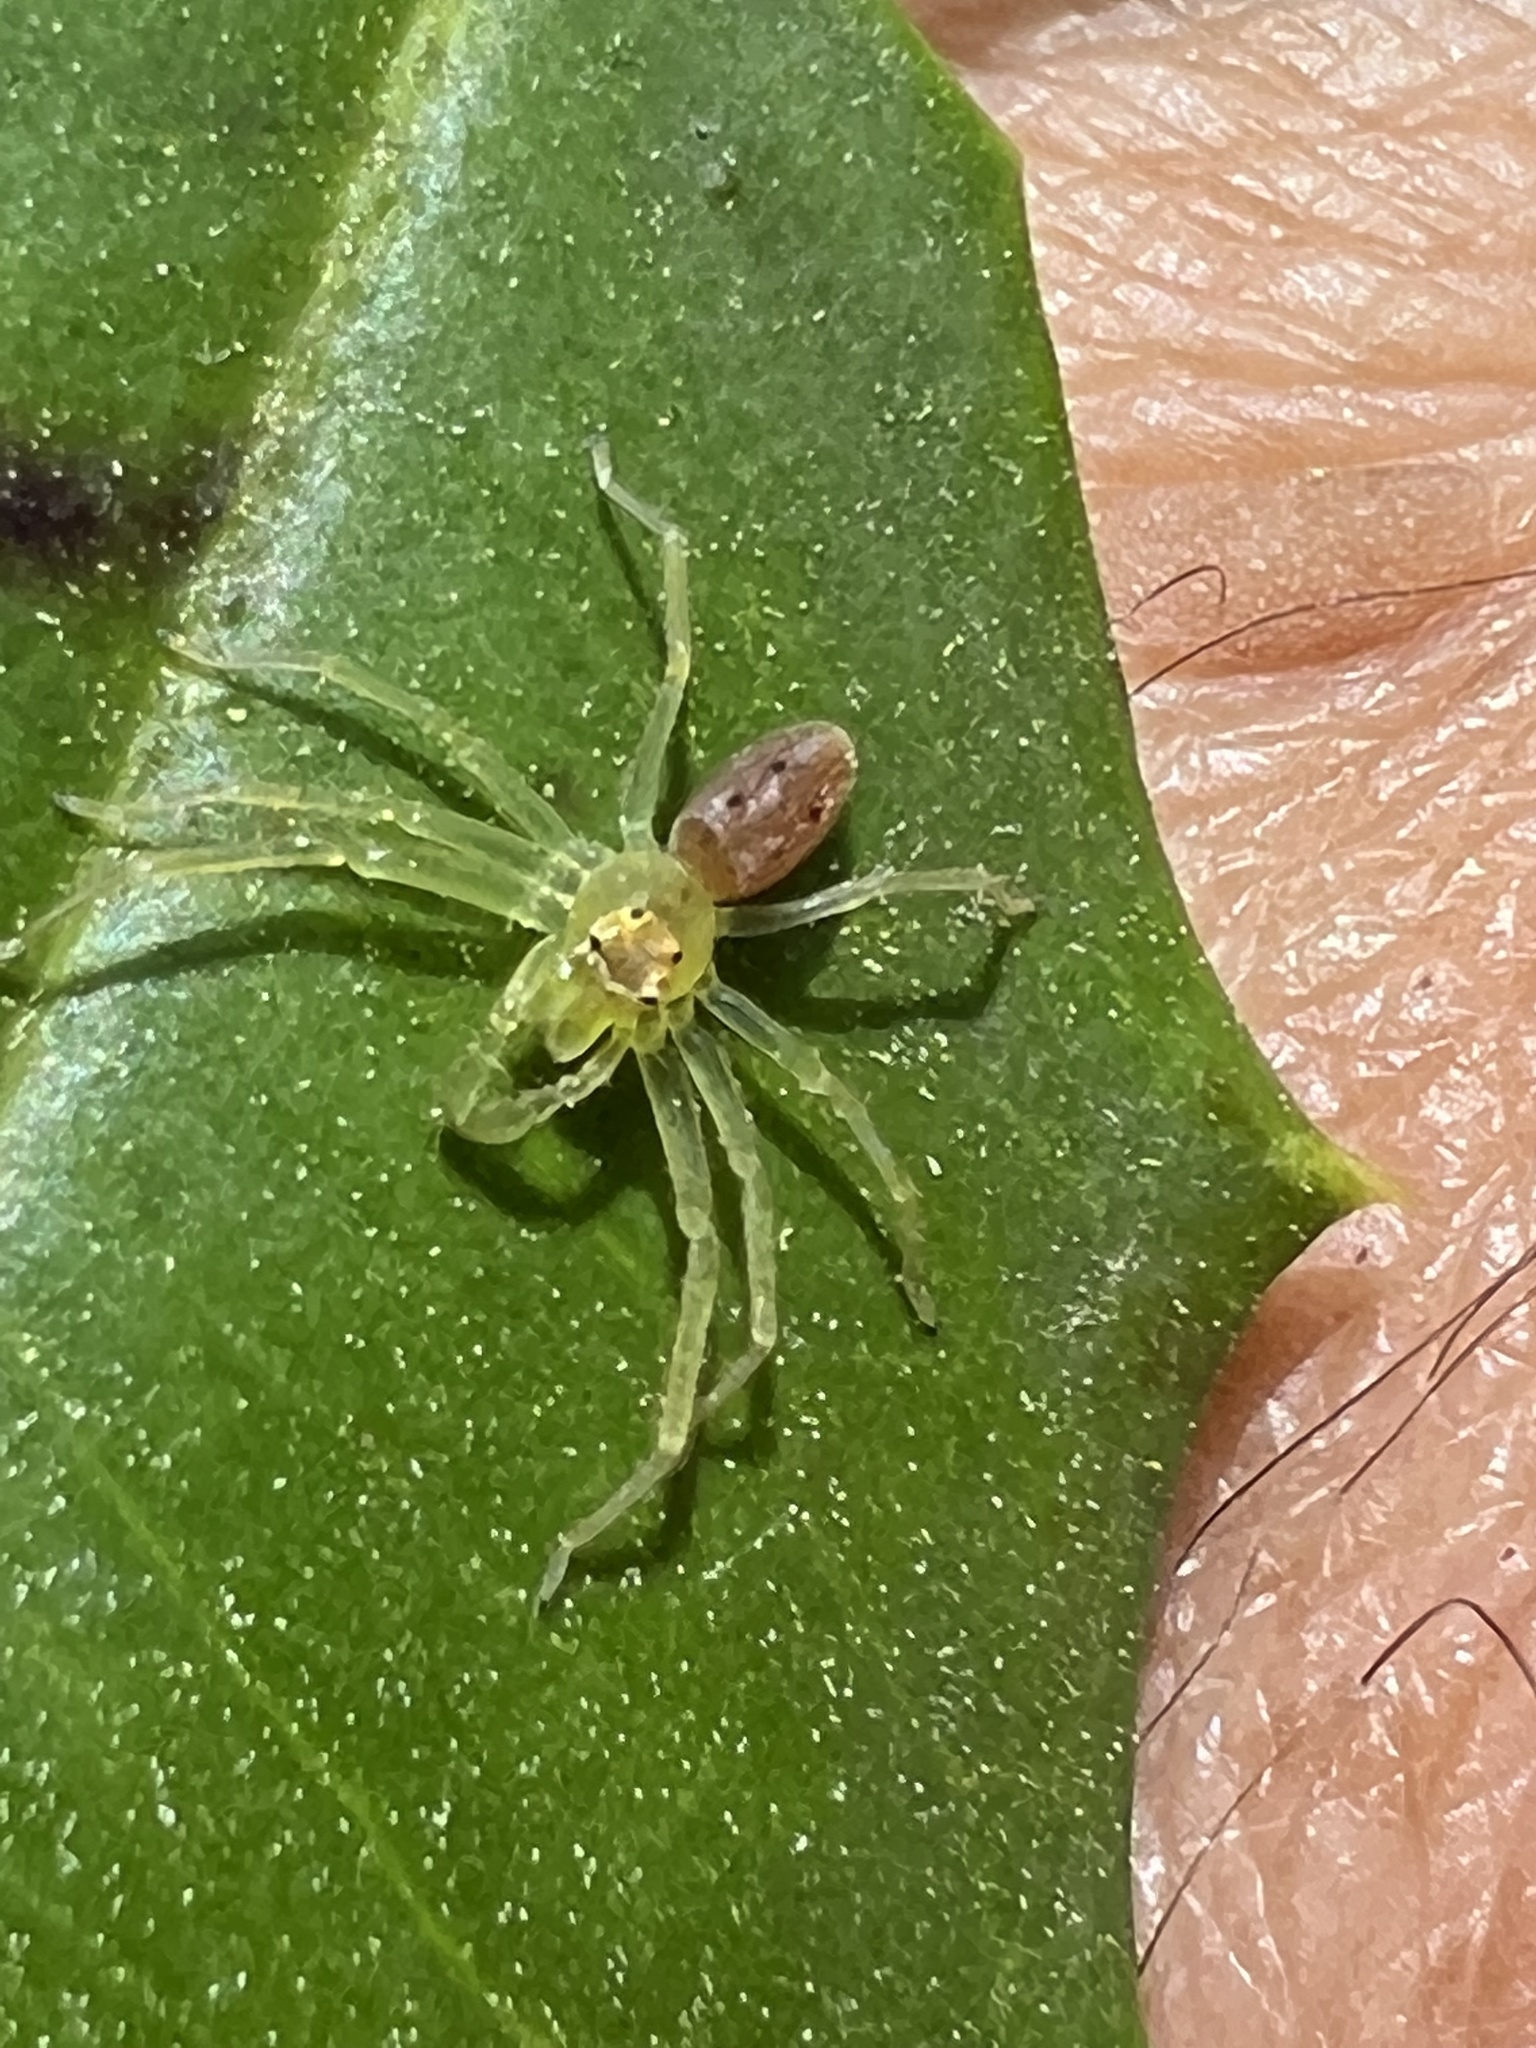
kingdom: Animalia
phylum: Arthropoda
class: Arachnida
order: Araneae
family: Salticidae
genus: Lyssomanes
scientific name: Lyssomanes viridis
